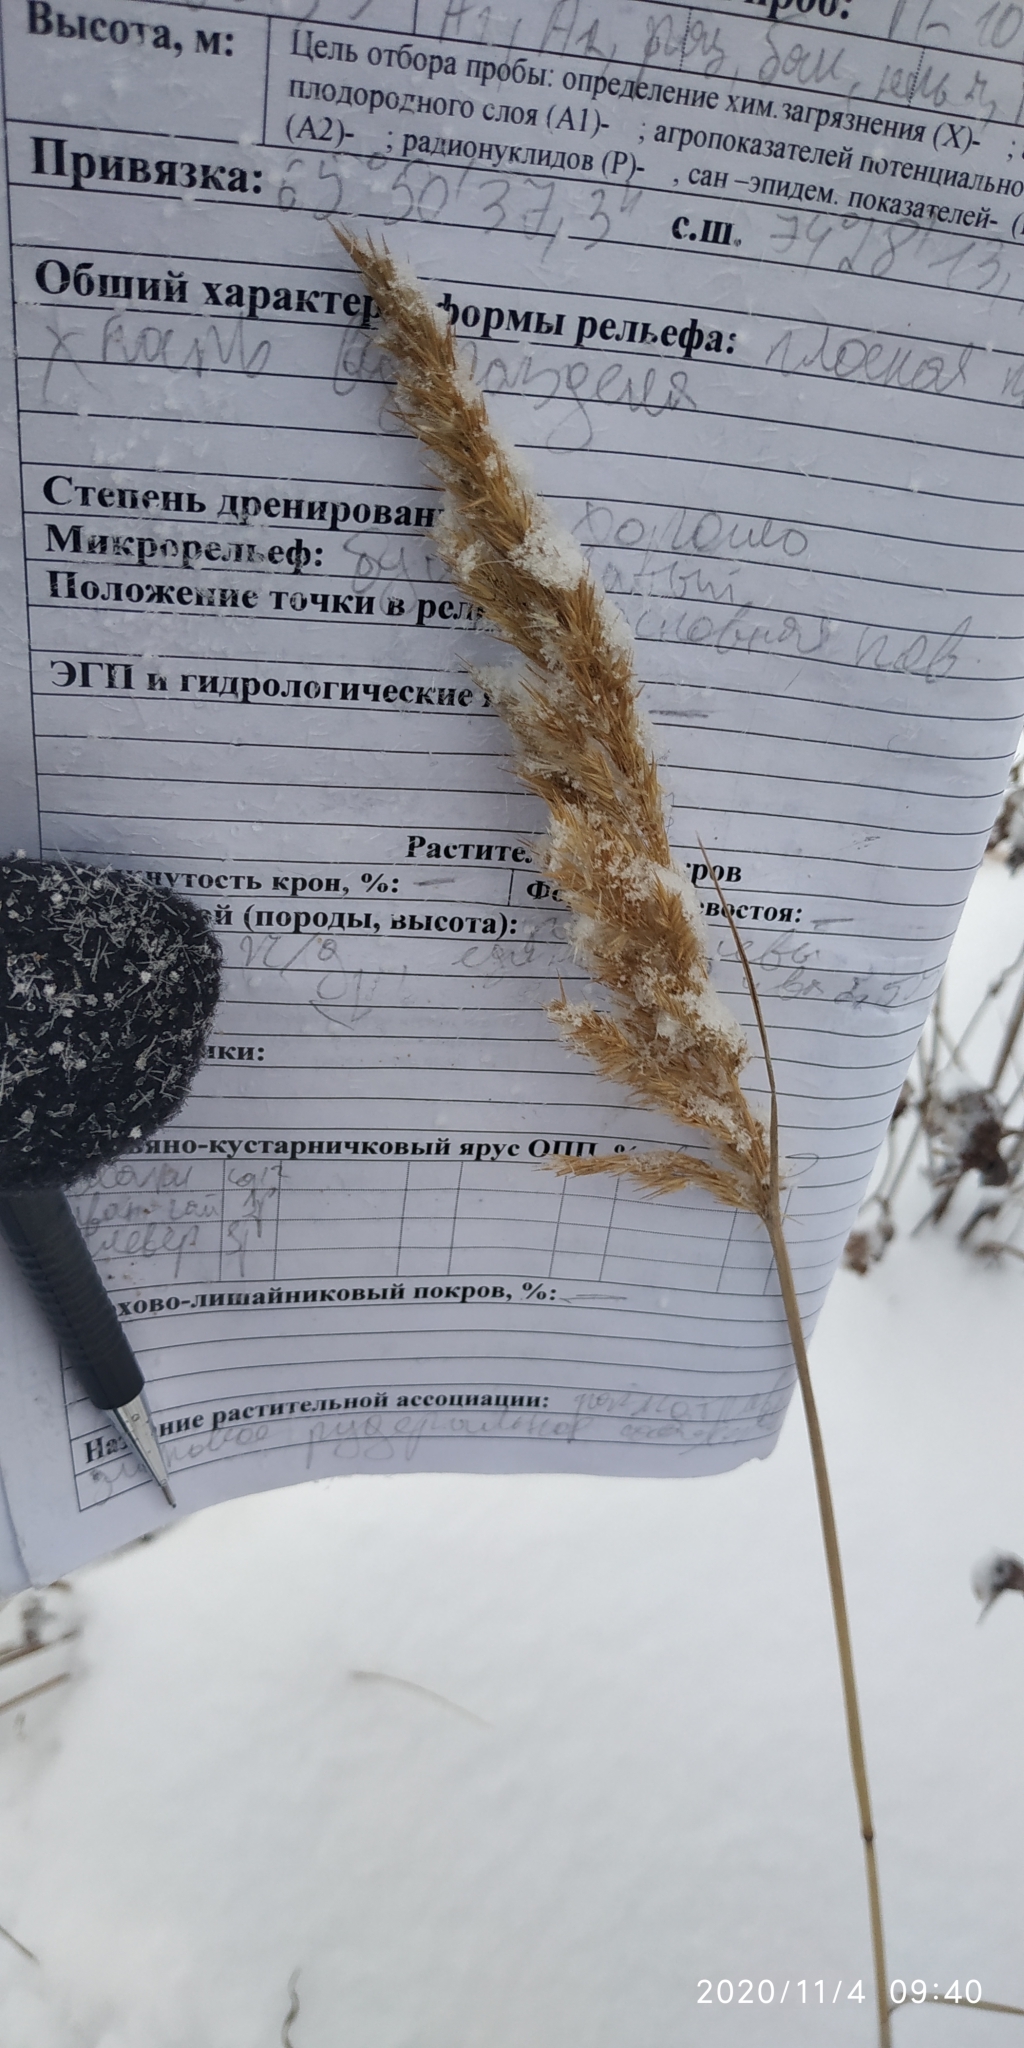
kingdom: Plantae
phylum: Tracheophyta
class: Liliopsida
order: Poales
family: Poaceae
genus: Calamagrostis
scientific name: Calamagrostis purpurea
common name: Scandinavian small-reed
